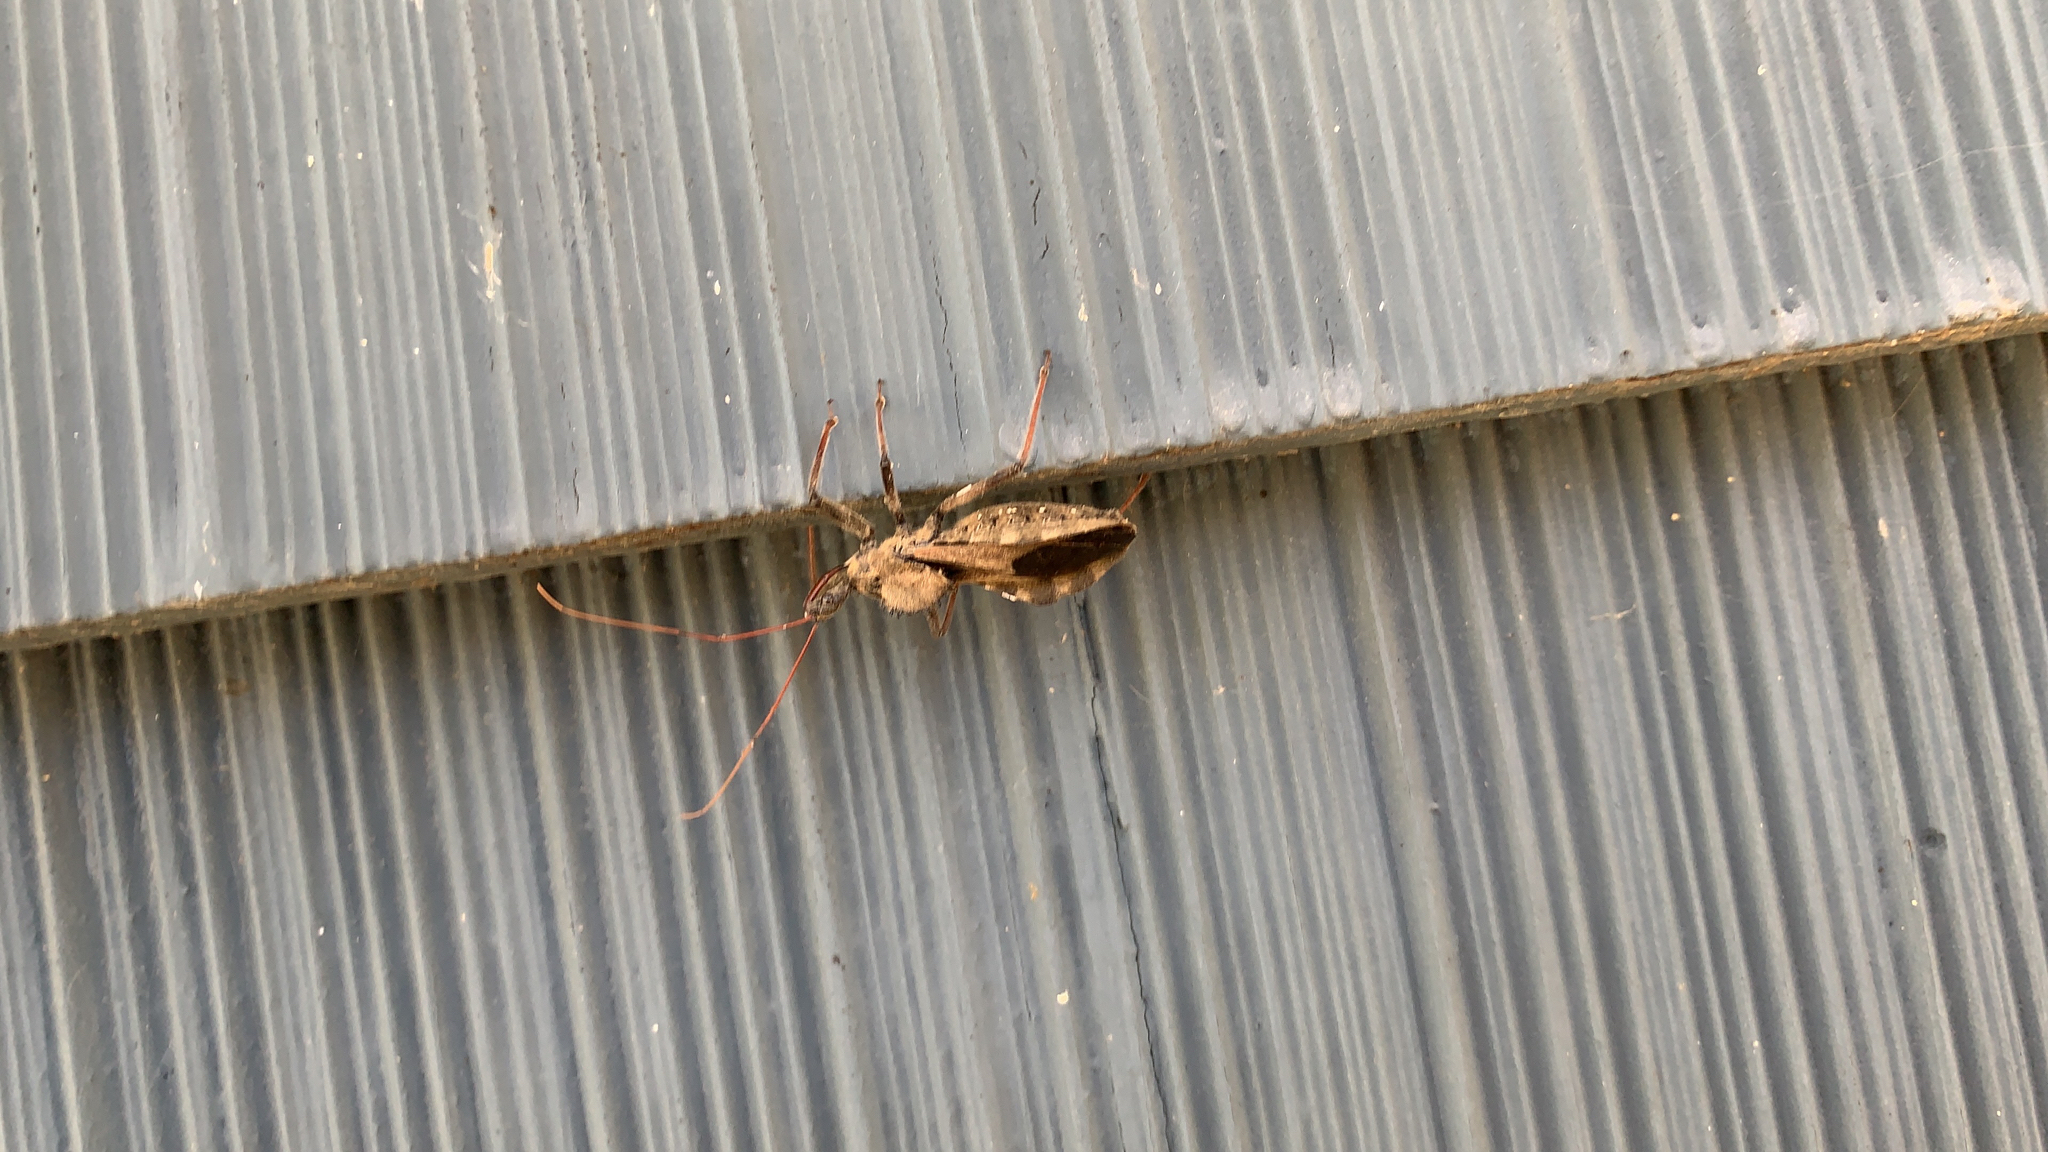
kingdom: Animalia
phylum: Arthropoda
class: Insecta
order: Hemiptera
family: Reduviidae
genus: Arilus
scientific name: Arilus cristatus
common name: North american wheel bug
